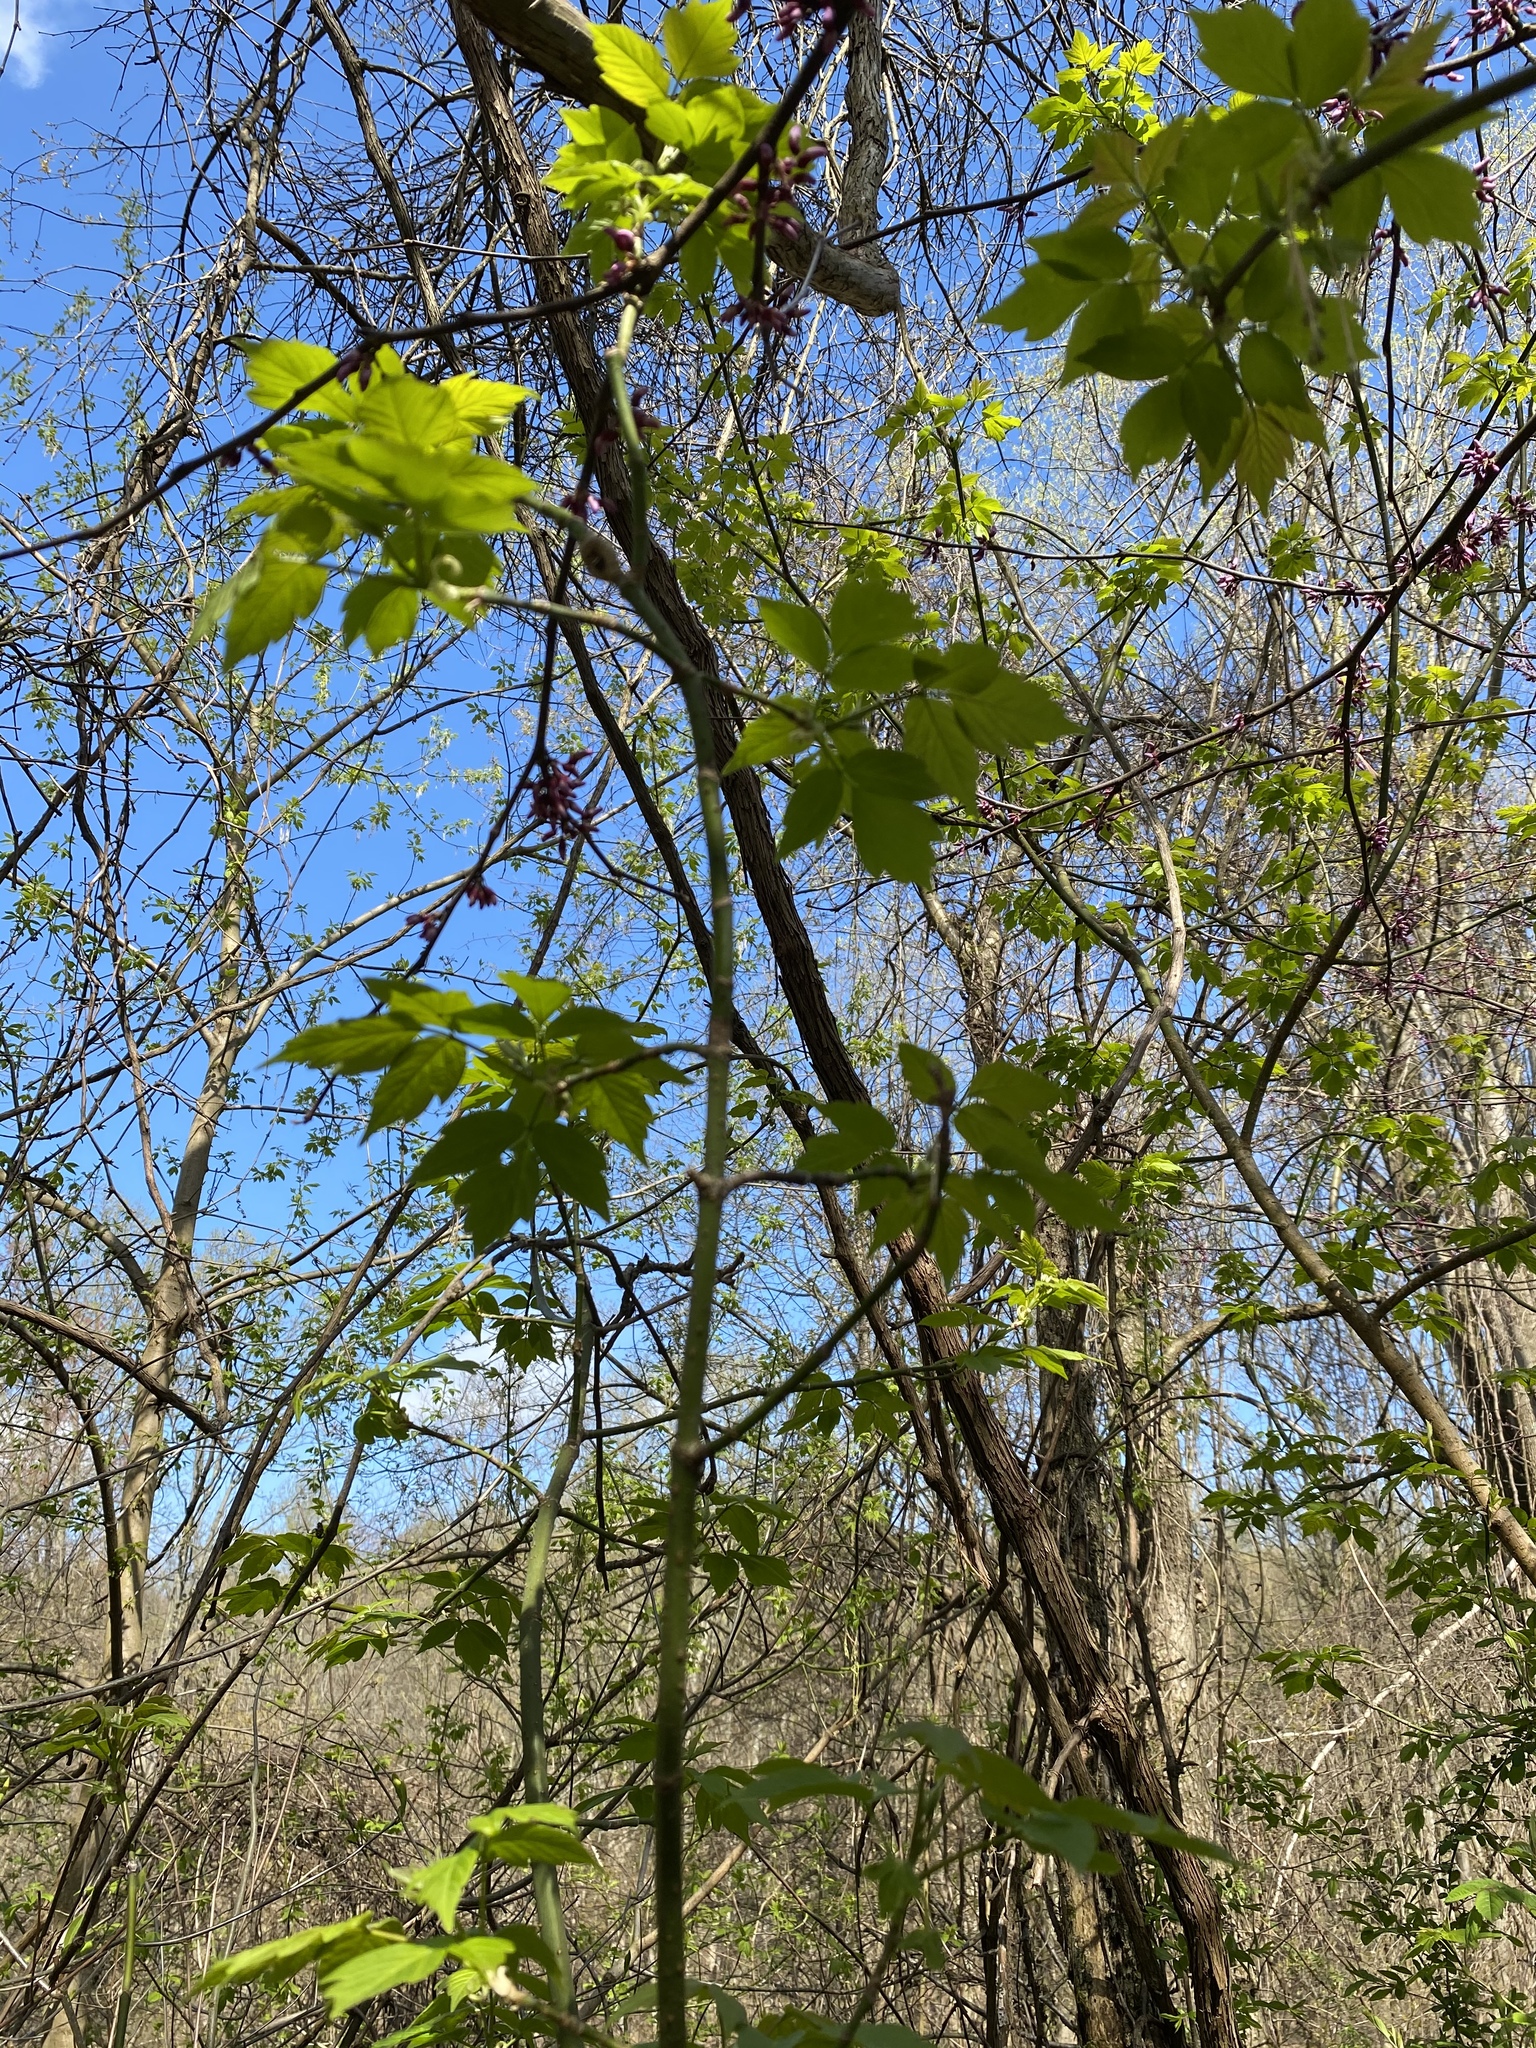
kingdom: Plantae
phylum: Tracheophyta
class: Magnoliopsida
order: Sapindales
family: Sapindaceae
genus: Acer
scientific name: Acer negundo
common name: Ashleaf maple
